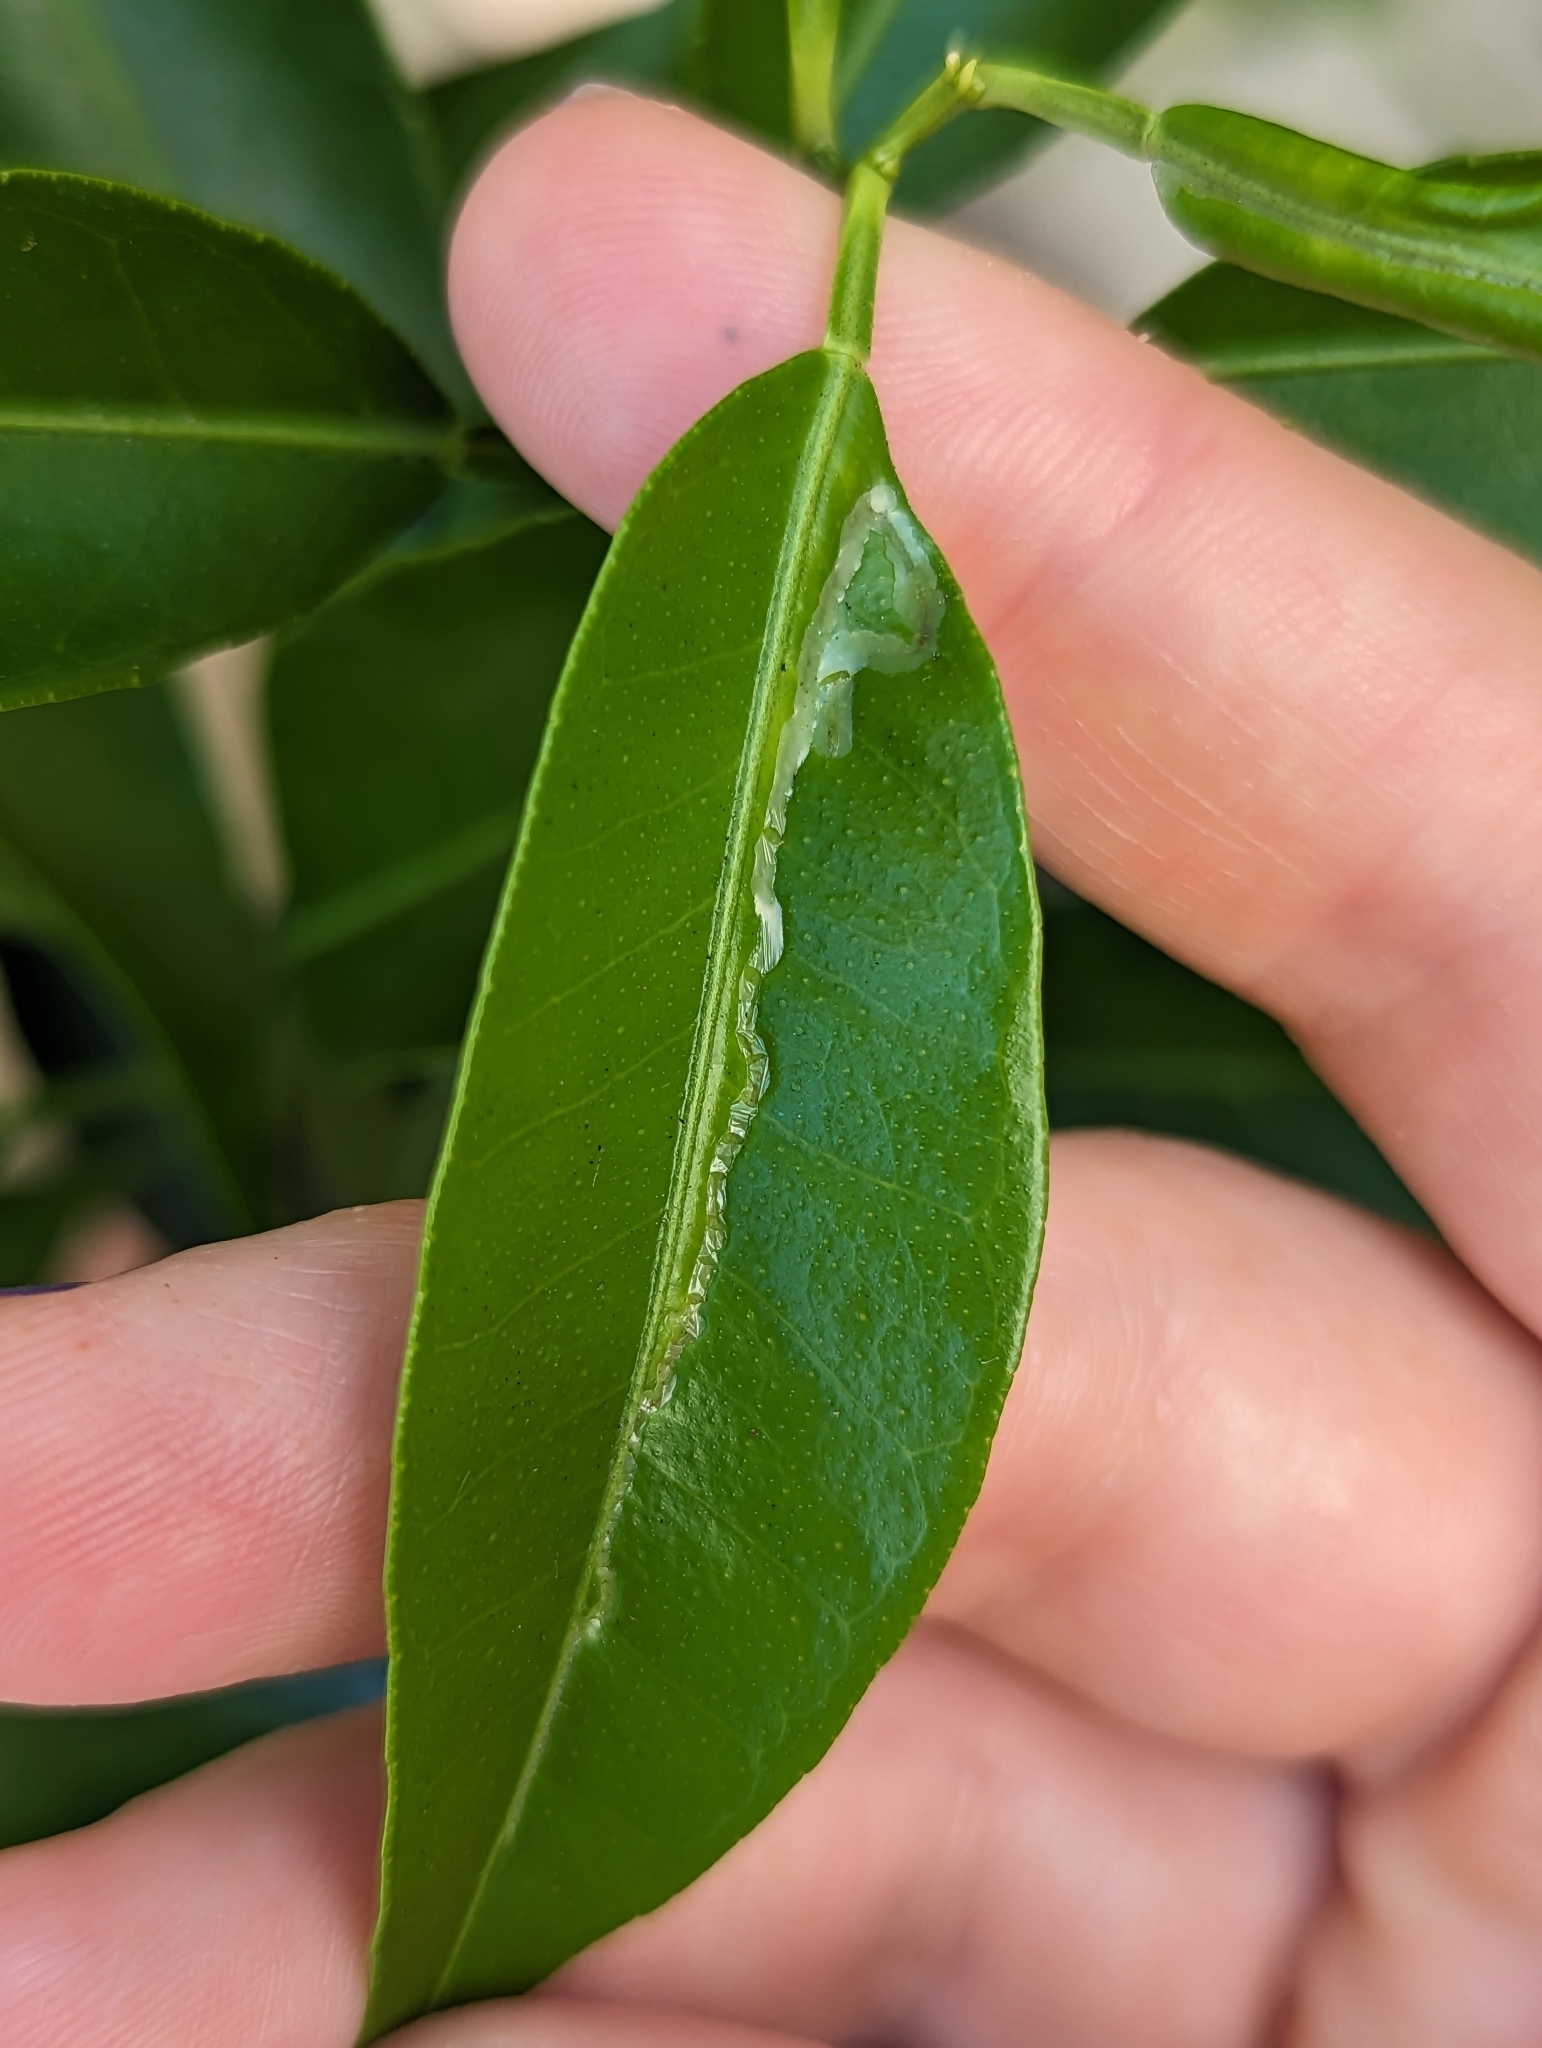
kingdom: Animalia
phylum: Arthropoda
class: Insecta
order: Lepidoptera
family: Gracillariidae
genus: Phyllocnistis
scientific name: Phyllocnistis citrella
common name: Citrus leafminer
